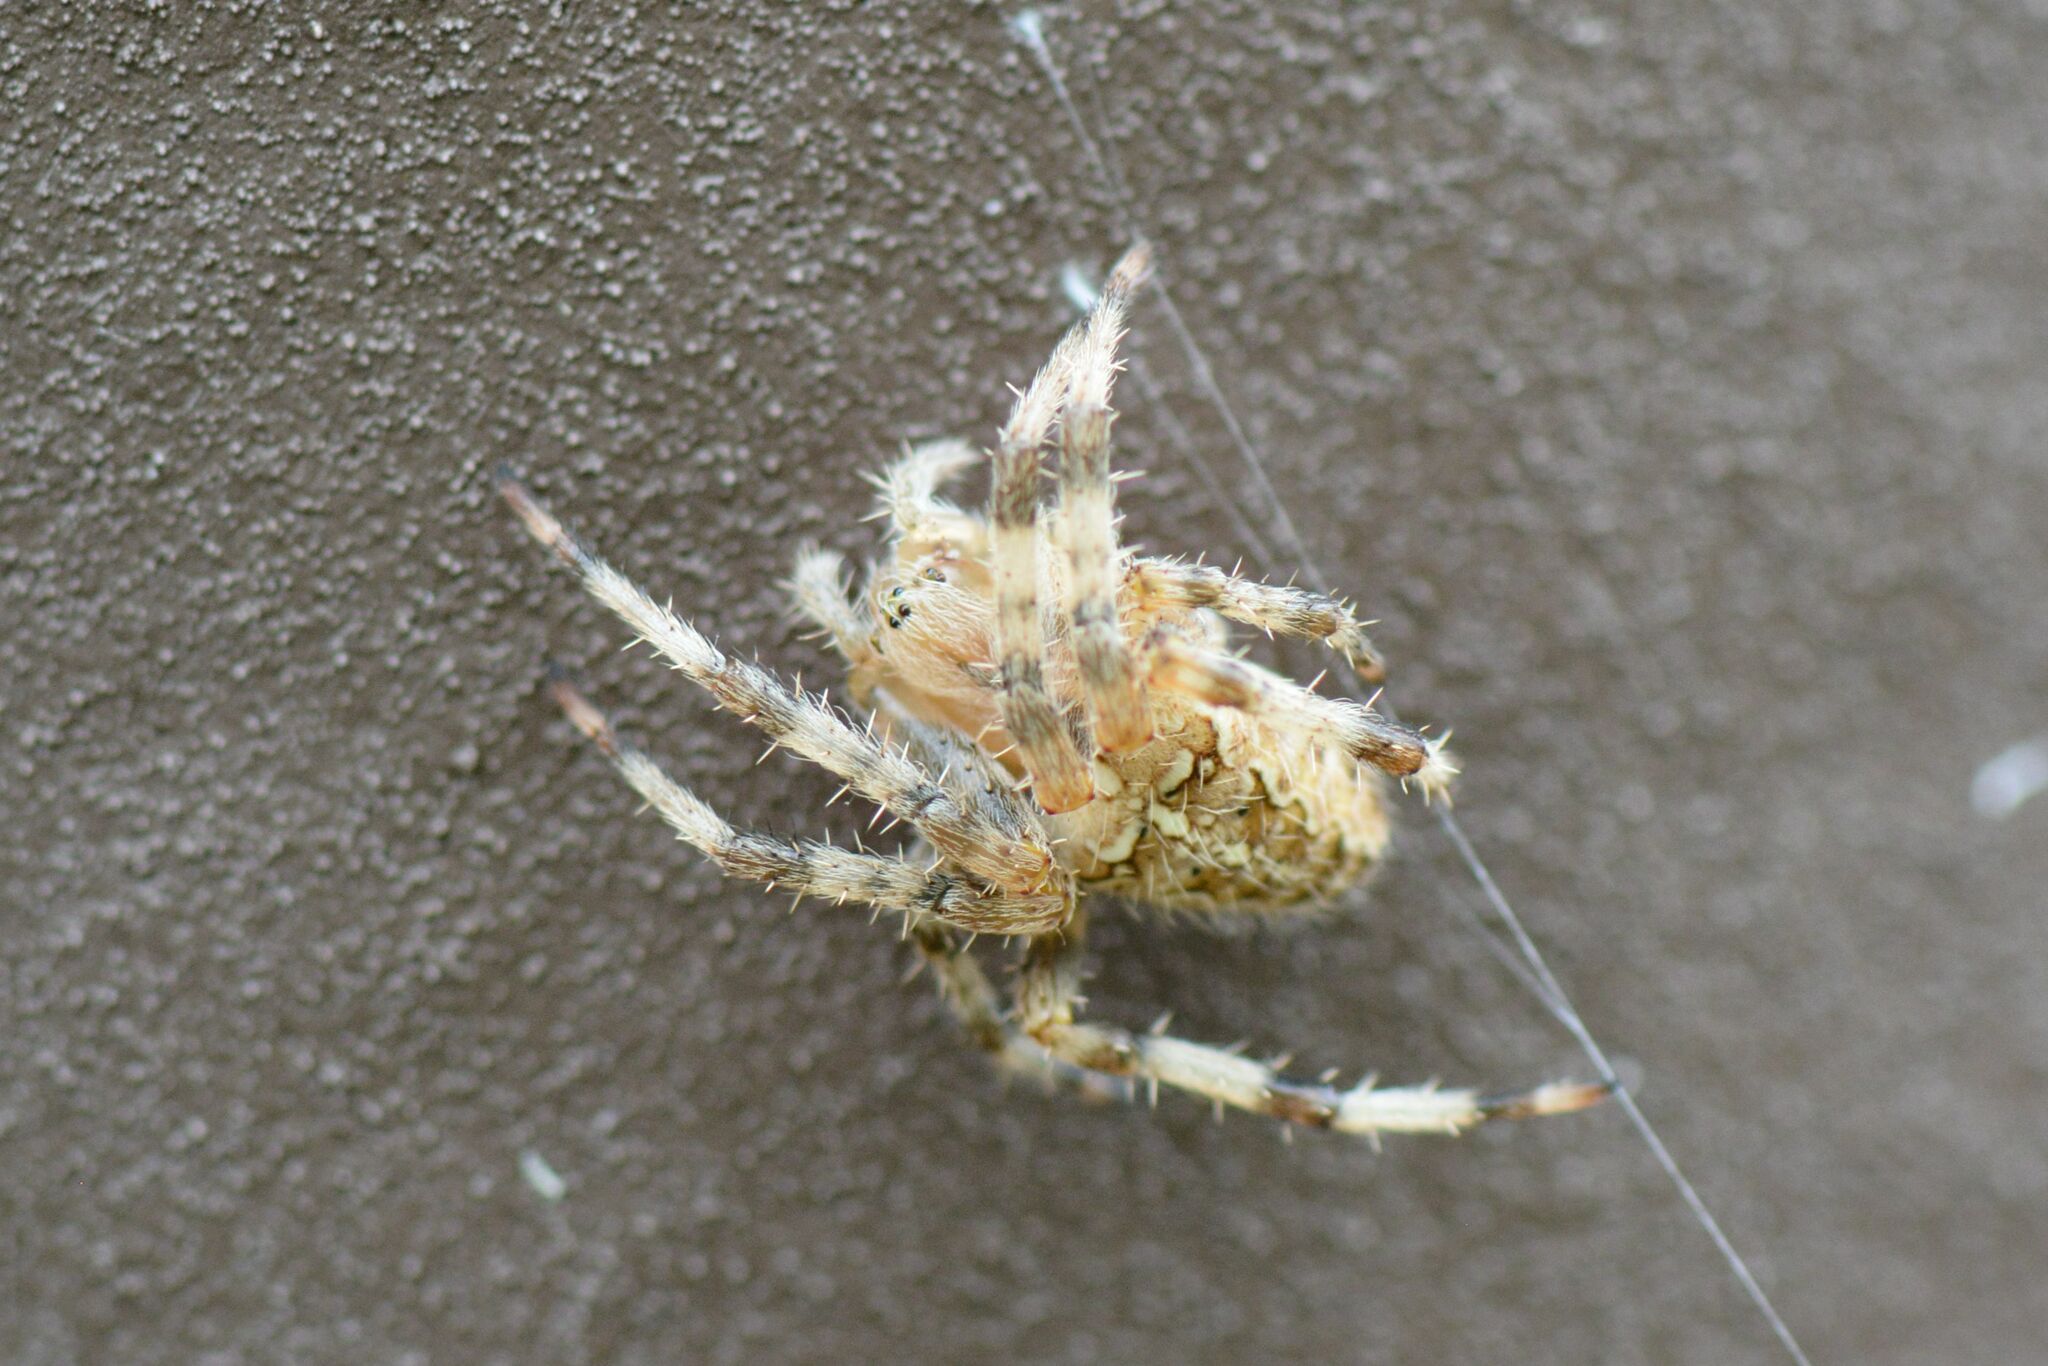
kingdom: Animalia
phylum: Arthropoda
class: Arachnida
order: Araneae
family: Araneidae
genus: Araneus
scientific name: Araneus diadematus
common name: Cross orbweaver
